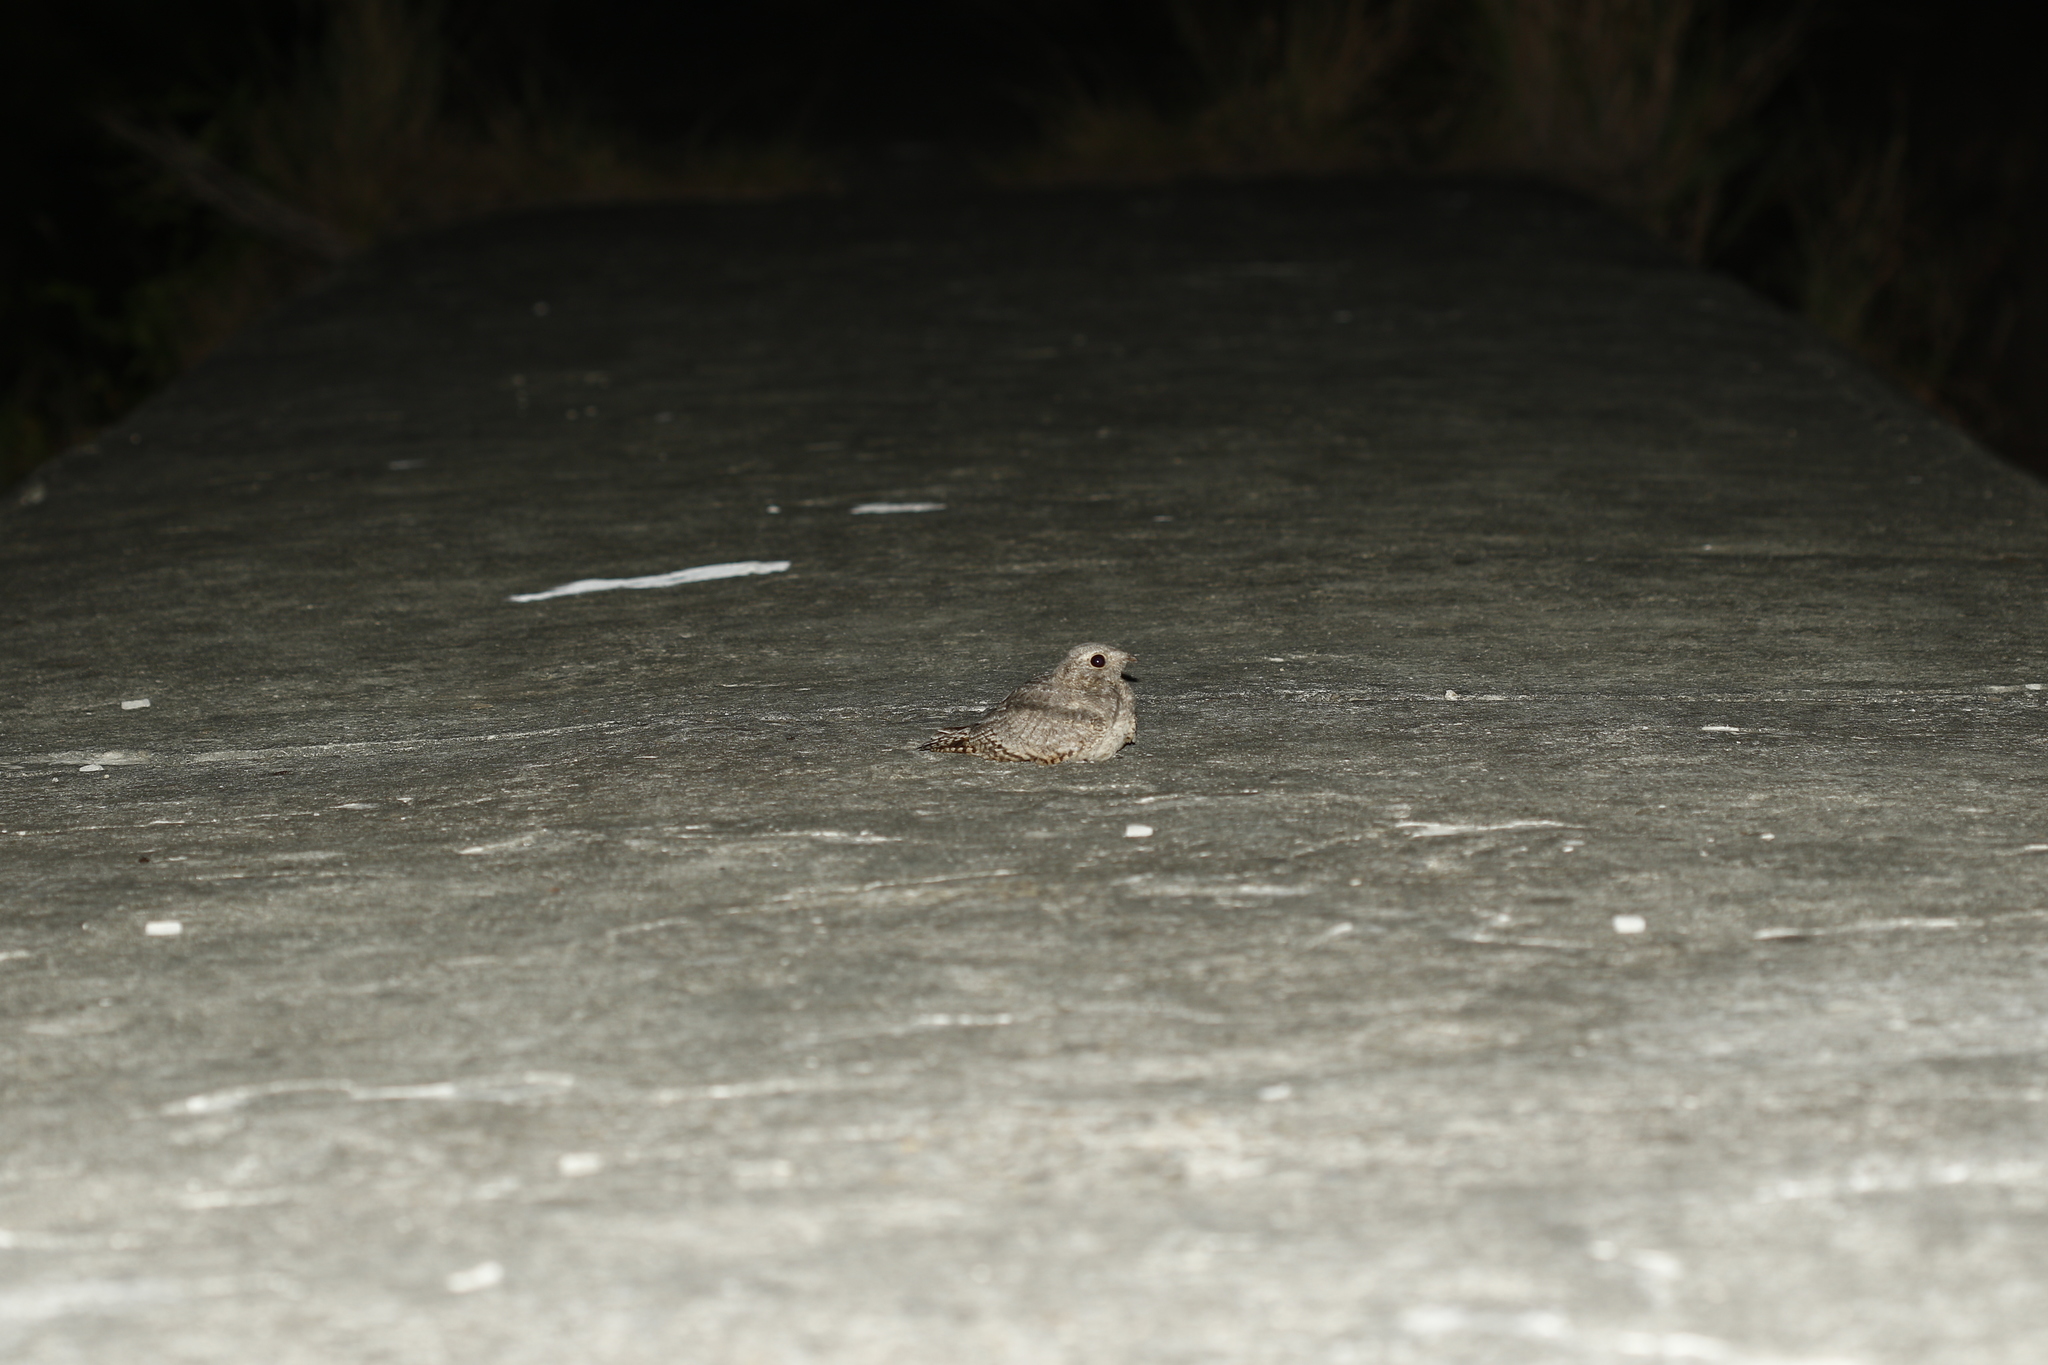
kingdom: Animalia
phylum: Chordata
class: Aves
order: Caprimulgiformes
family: Caprimulgidae
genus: Caprimulgus
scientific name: Caprimulgus affinis
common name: Savanna nightjar
